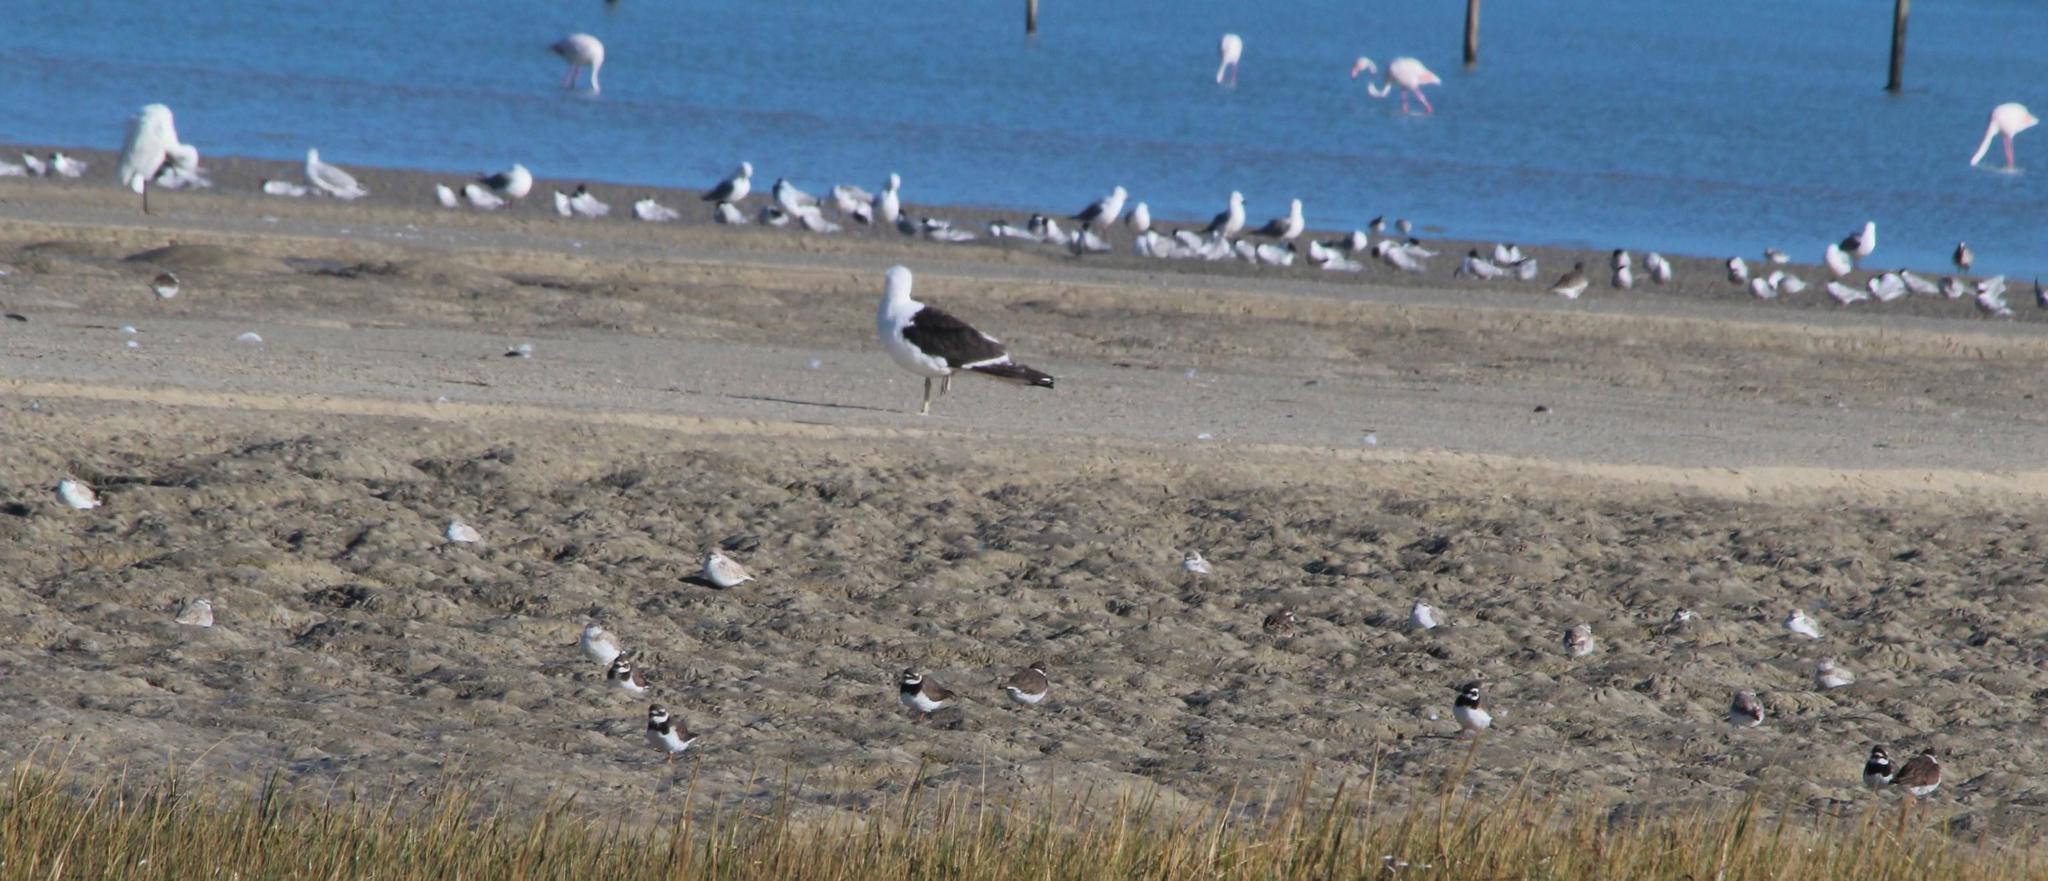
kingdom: Animalia
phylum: Chordata
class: Aves
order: Charadriiformes
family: Charadriidae
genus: Charadrius
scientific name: Charadrius hiaticula
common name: Common ringed plover
